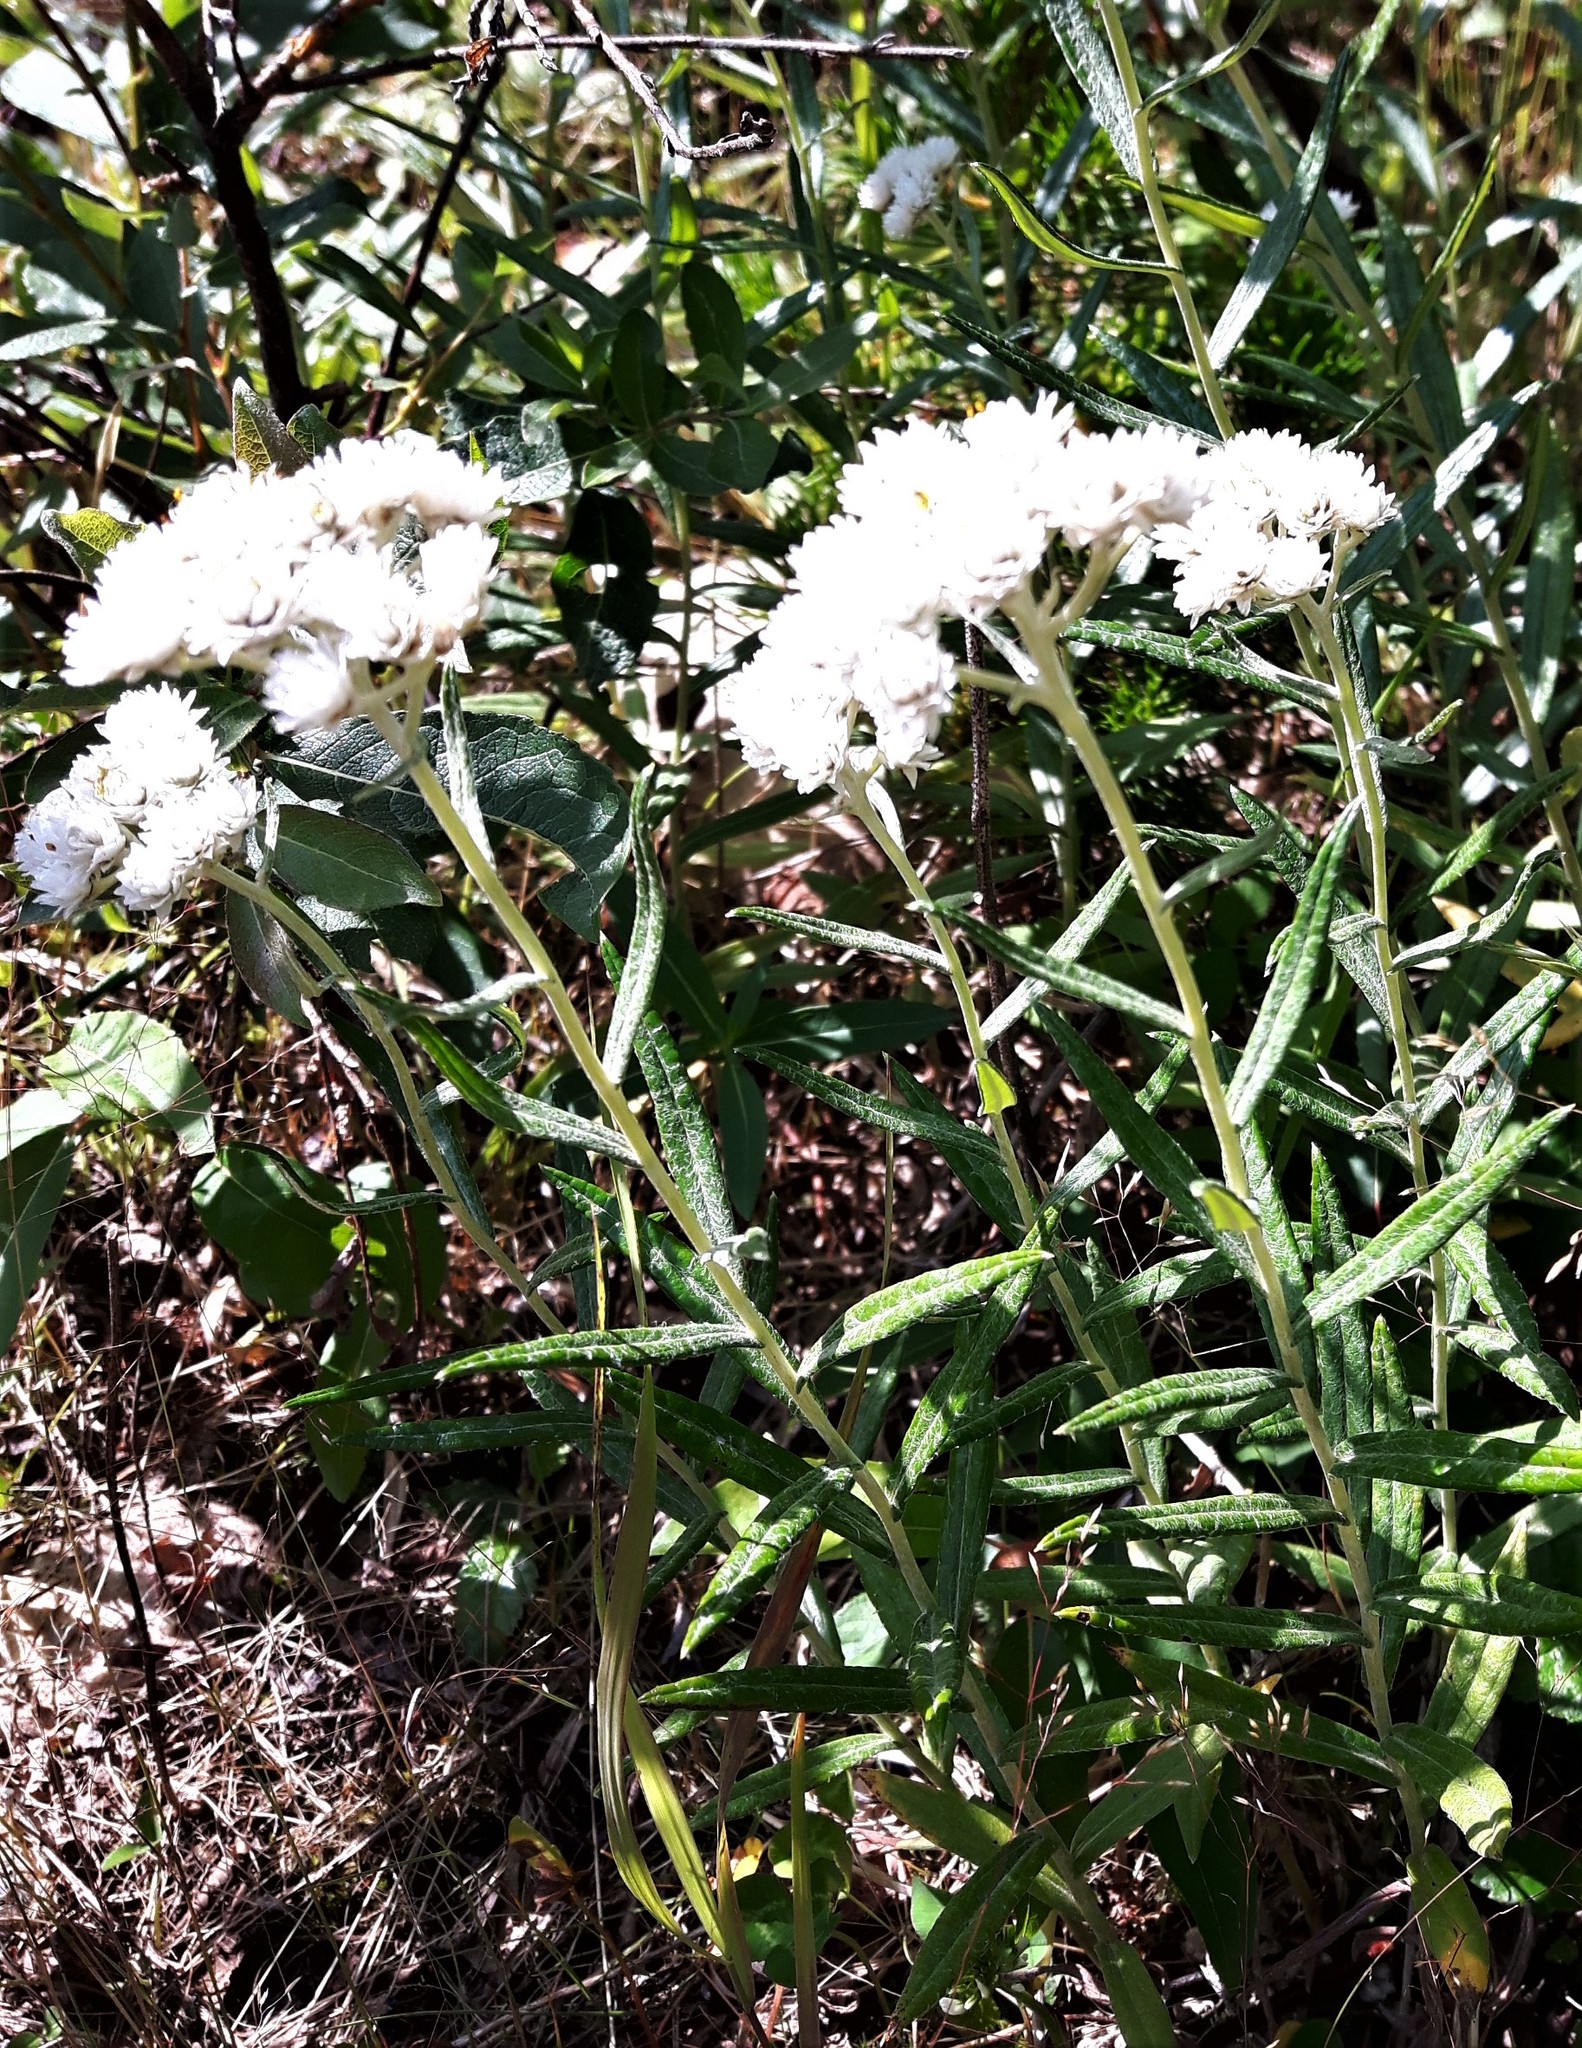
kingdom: Plantae
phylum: Tracheophyta
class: Magnoliopsida
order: Asterales
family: Asteraceae
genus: Anaphalis
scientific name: Anaphalis margaritacea
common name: Pearly everlasting
